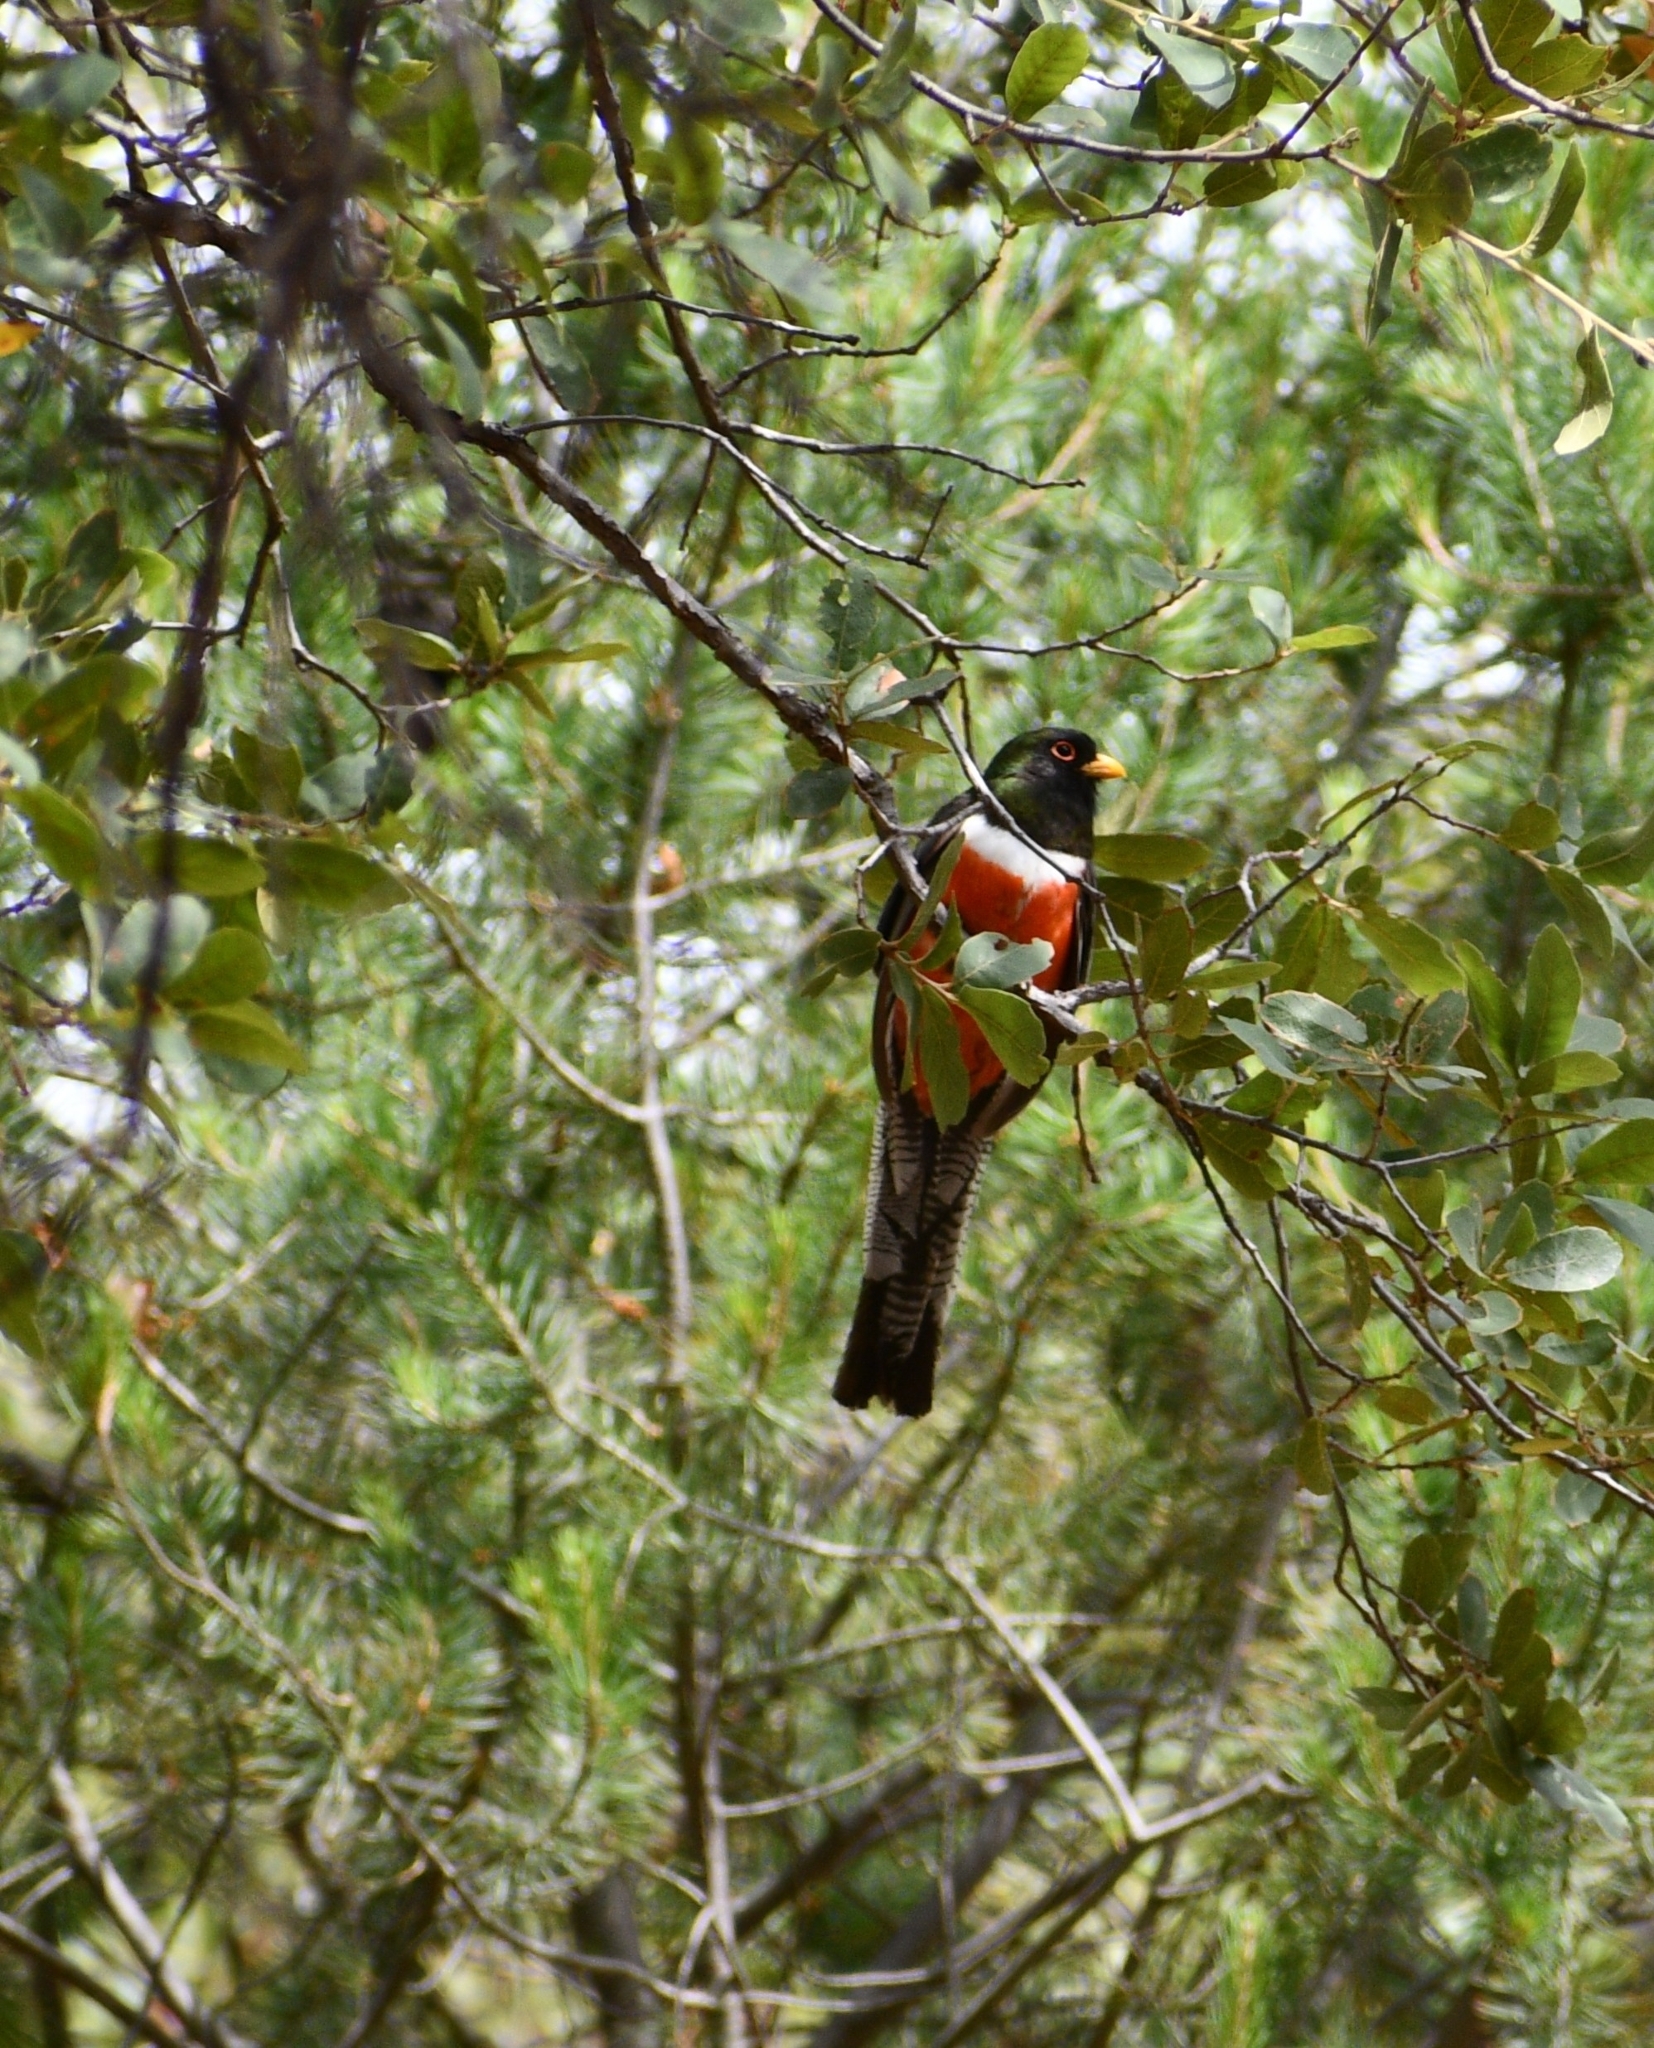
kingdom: Animalia
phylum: Chordata
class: Aves
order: Trogoniformes
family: Trogonidae
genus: Trogon
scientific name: Trogon elegans
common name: Elegant trogon
